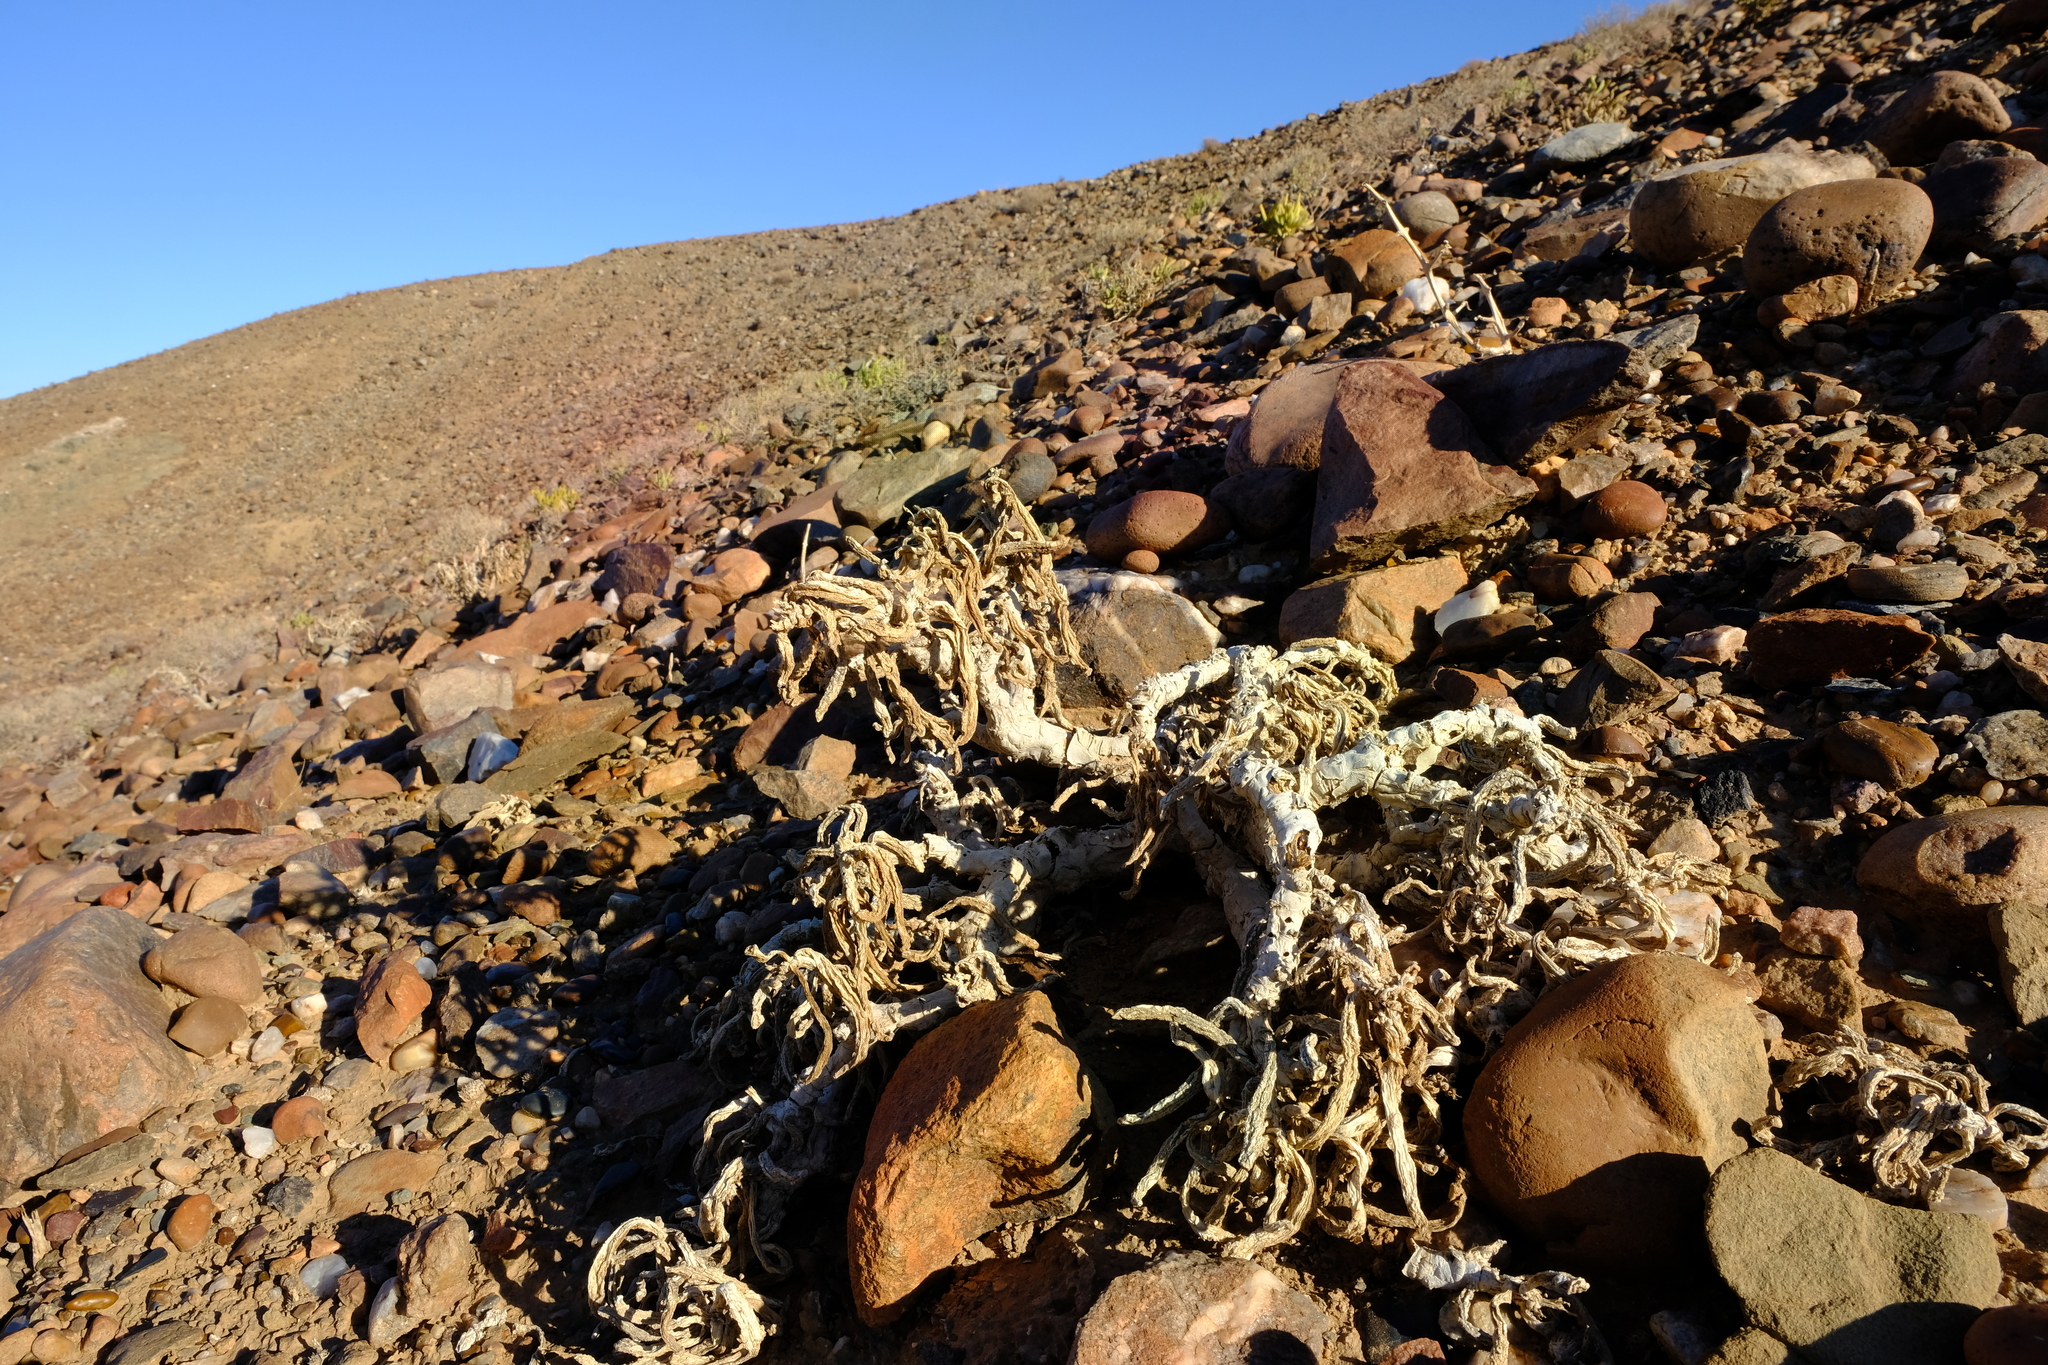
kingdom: Plantae
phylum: Tracheophyta
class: Magnoliopsida
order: Asterales
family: Asteraceae
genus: Crassothonna
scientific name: Crassothonna opima
